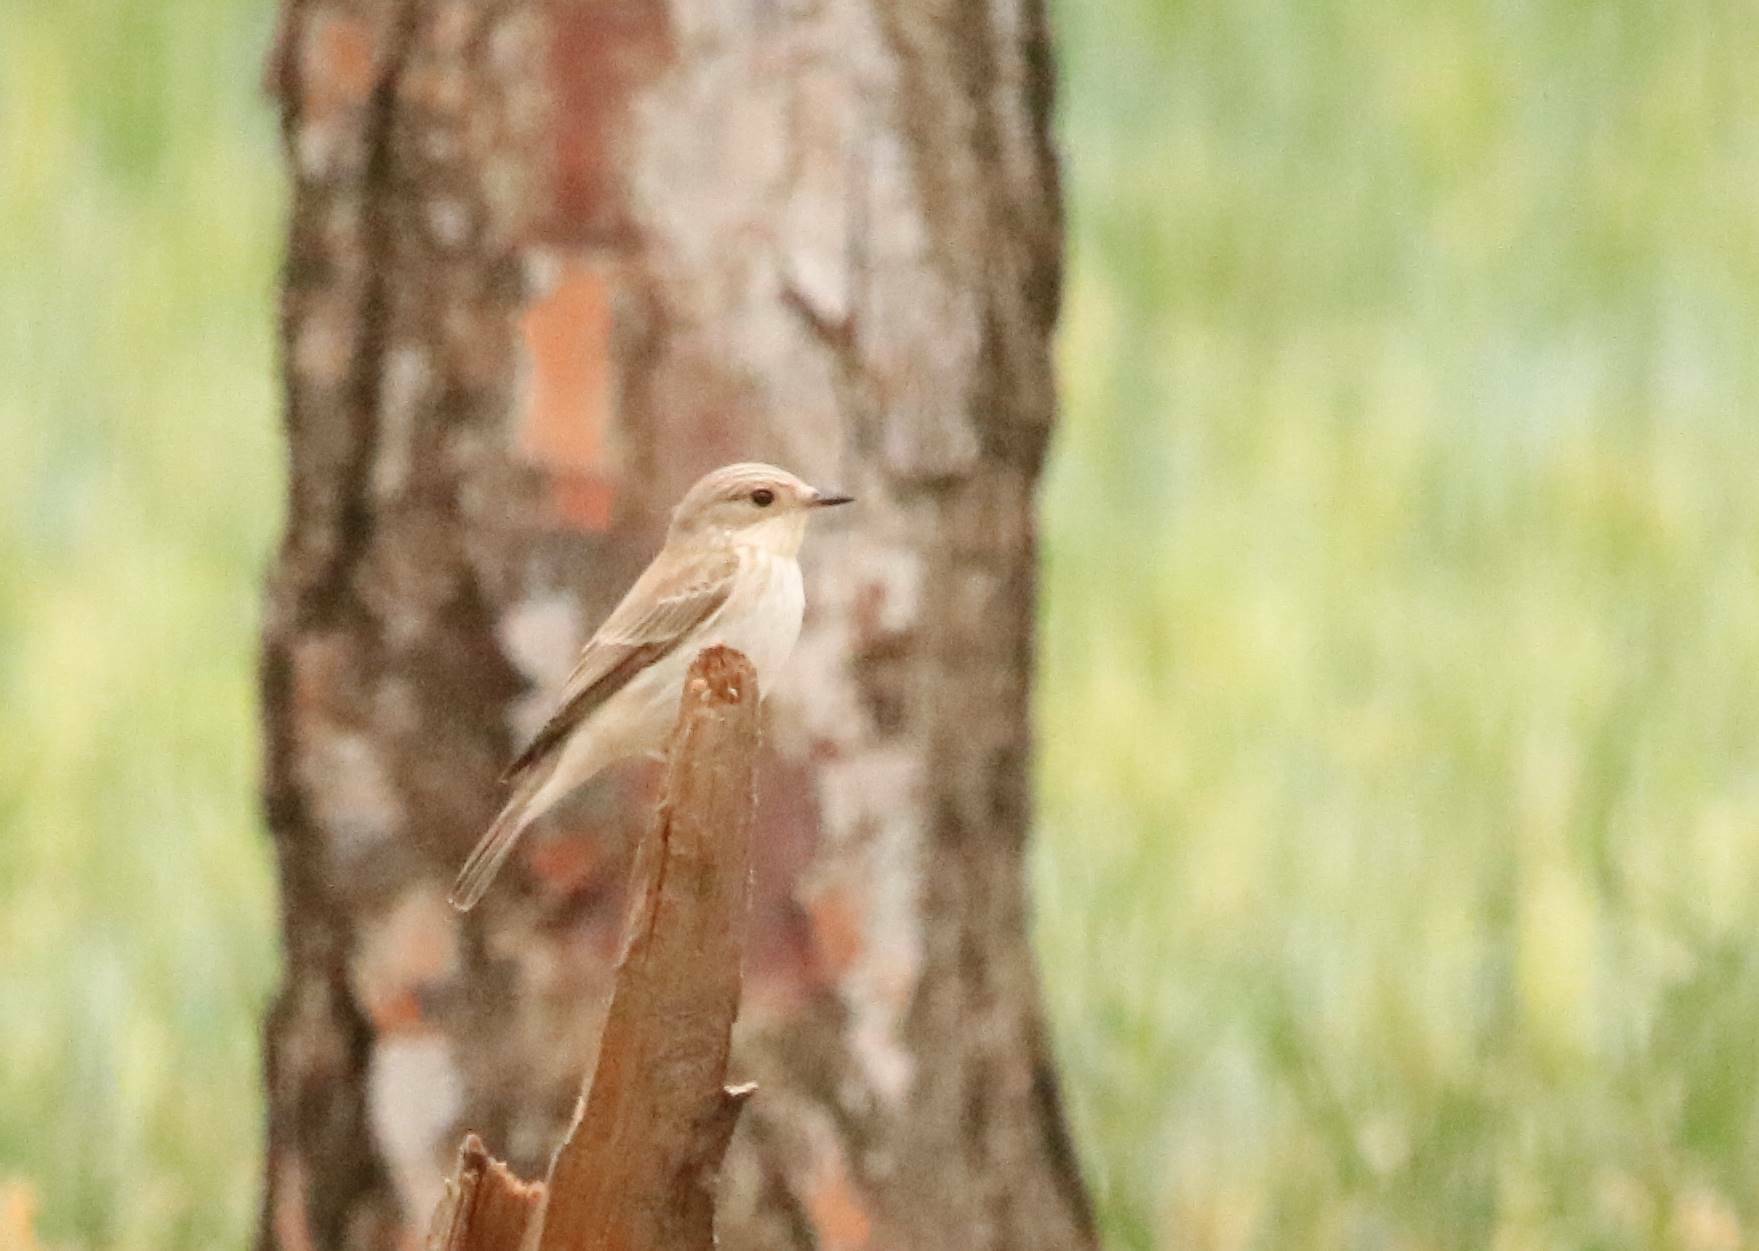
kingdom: Animalia
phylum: Chordata
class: Aves
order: Passeriformes
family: Muscicapidae
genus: Muscicapa
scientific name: Muscicapa striata
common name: Spotted flycatcher
